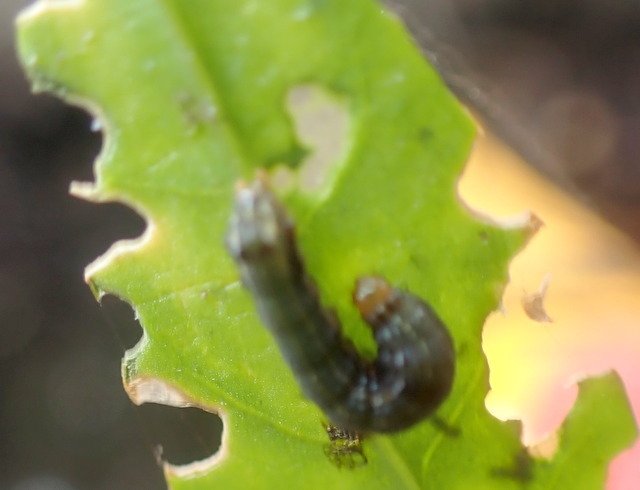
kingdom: Animalia
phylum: Arthropoda
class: Insecta
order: Coleoptera
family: Chrysomelidae
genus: Agasicles
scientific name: Agasicles hygrophila
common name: Alligatorweed flea beetle
